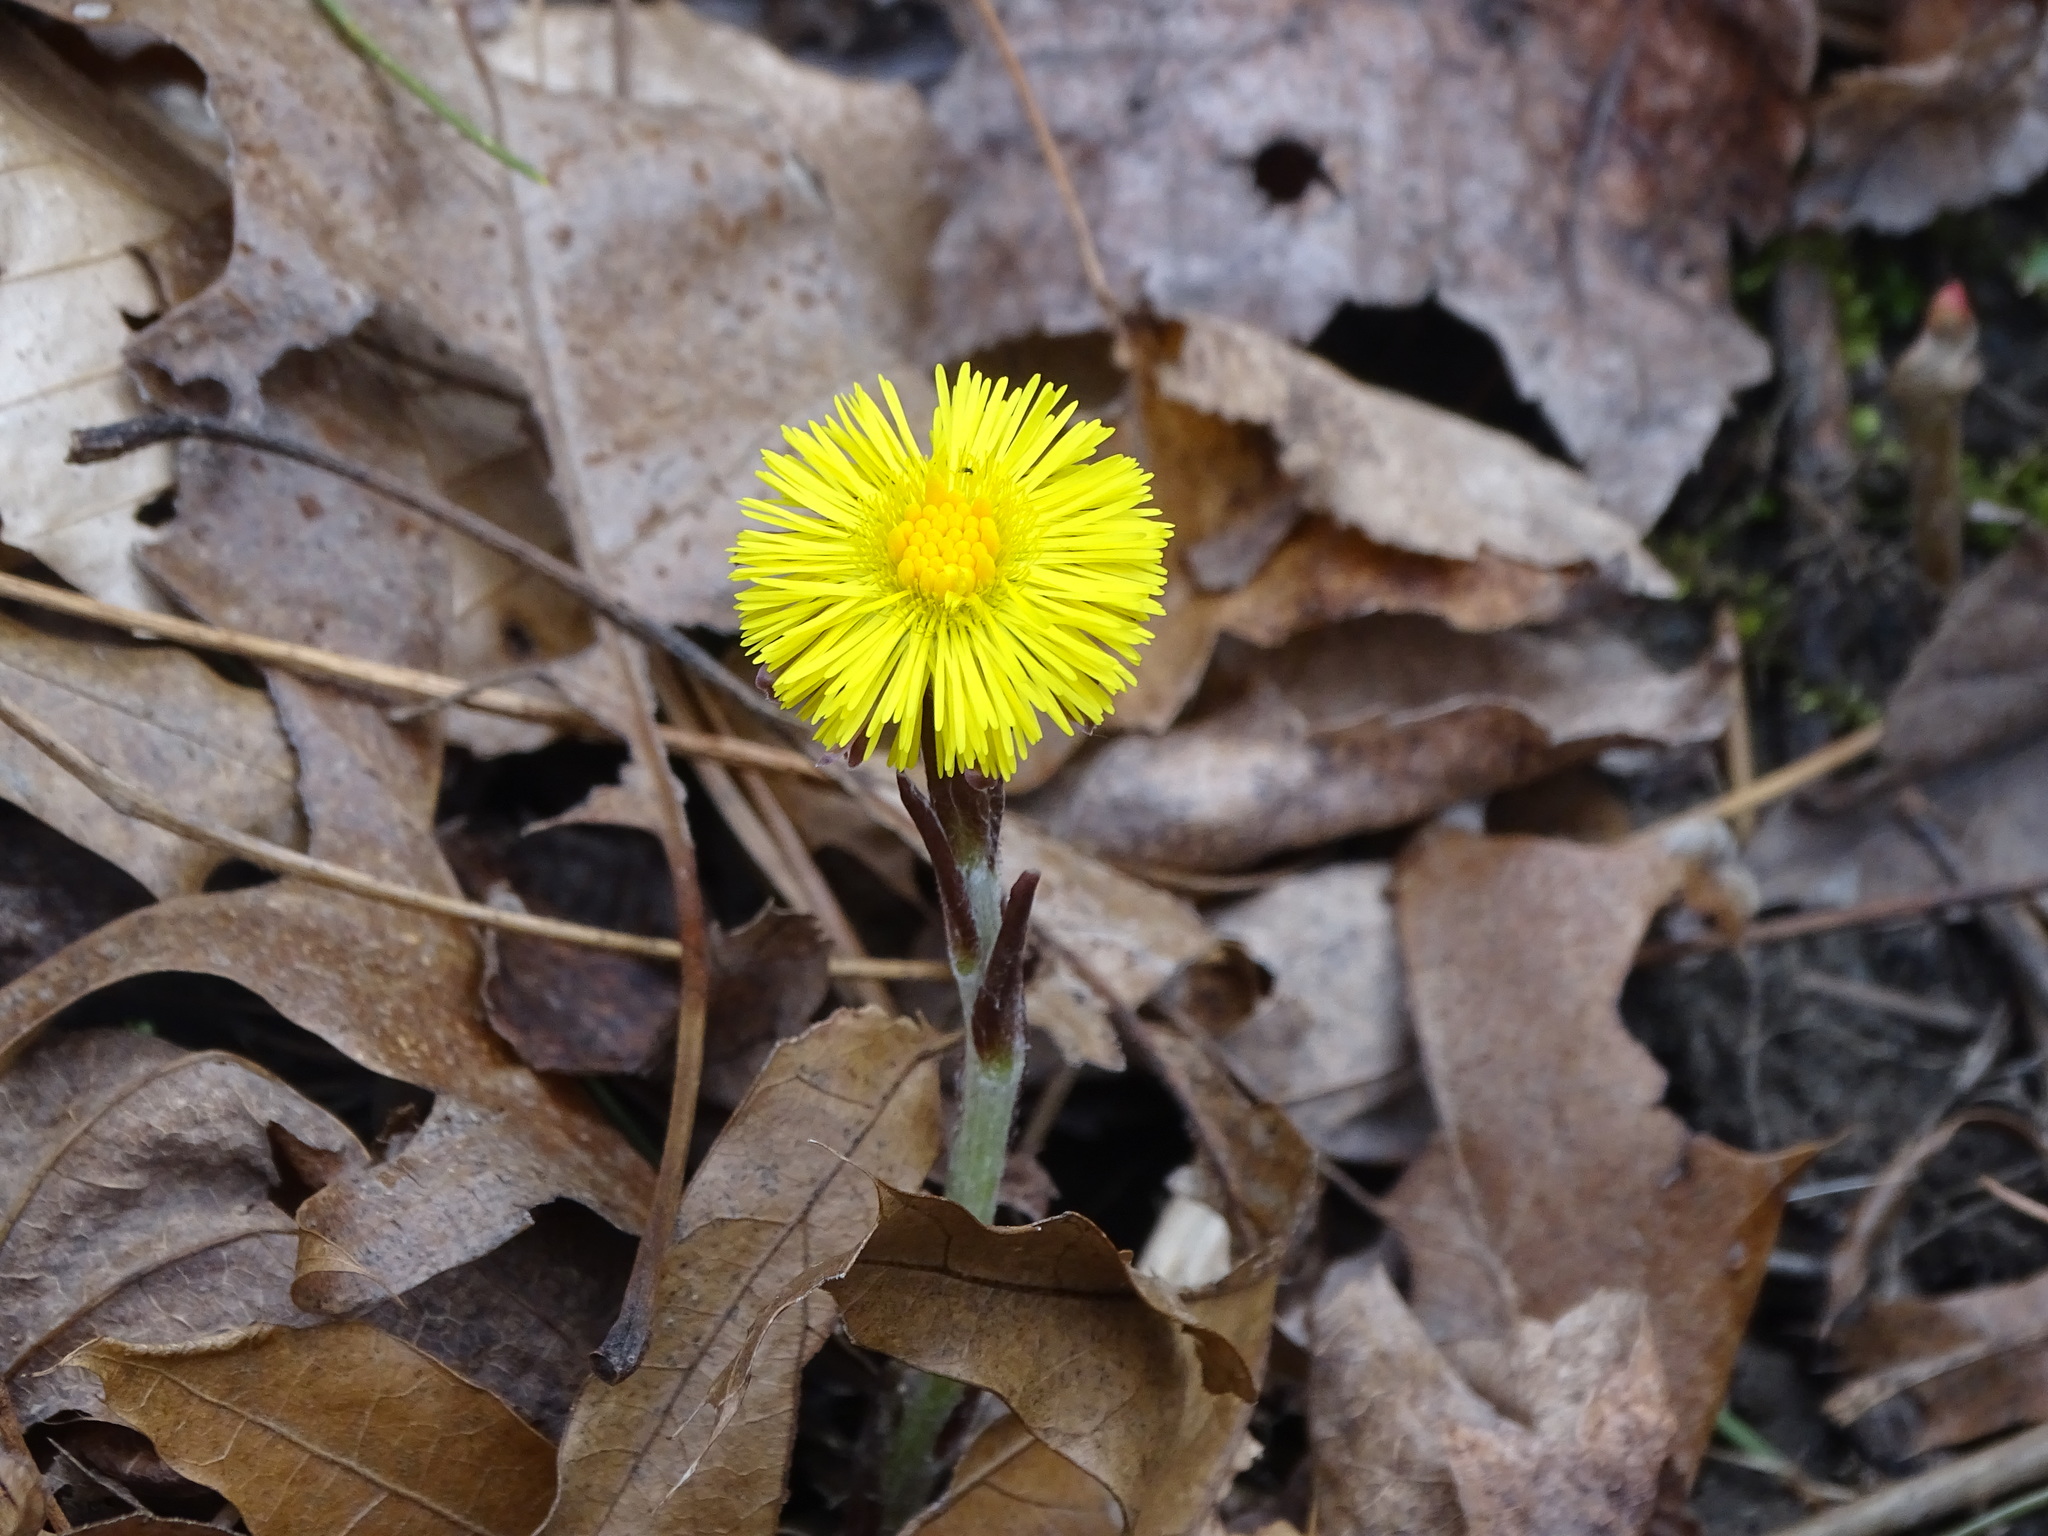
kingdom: Plantae
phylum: Tracheophyta
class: Magnoliopsida
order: Asterales
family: Asteraceae
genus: Tussilago
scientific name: Tussilago farfara
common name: Coltsfoot
